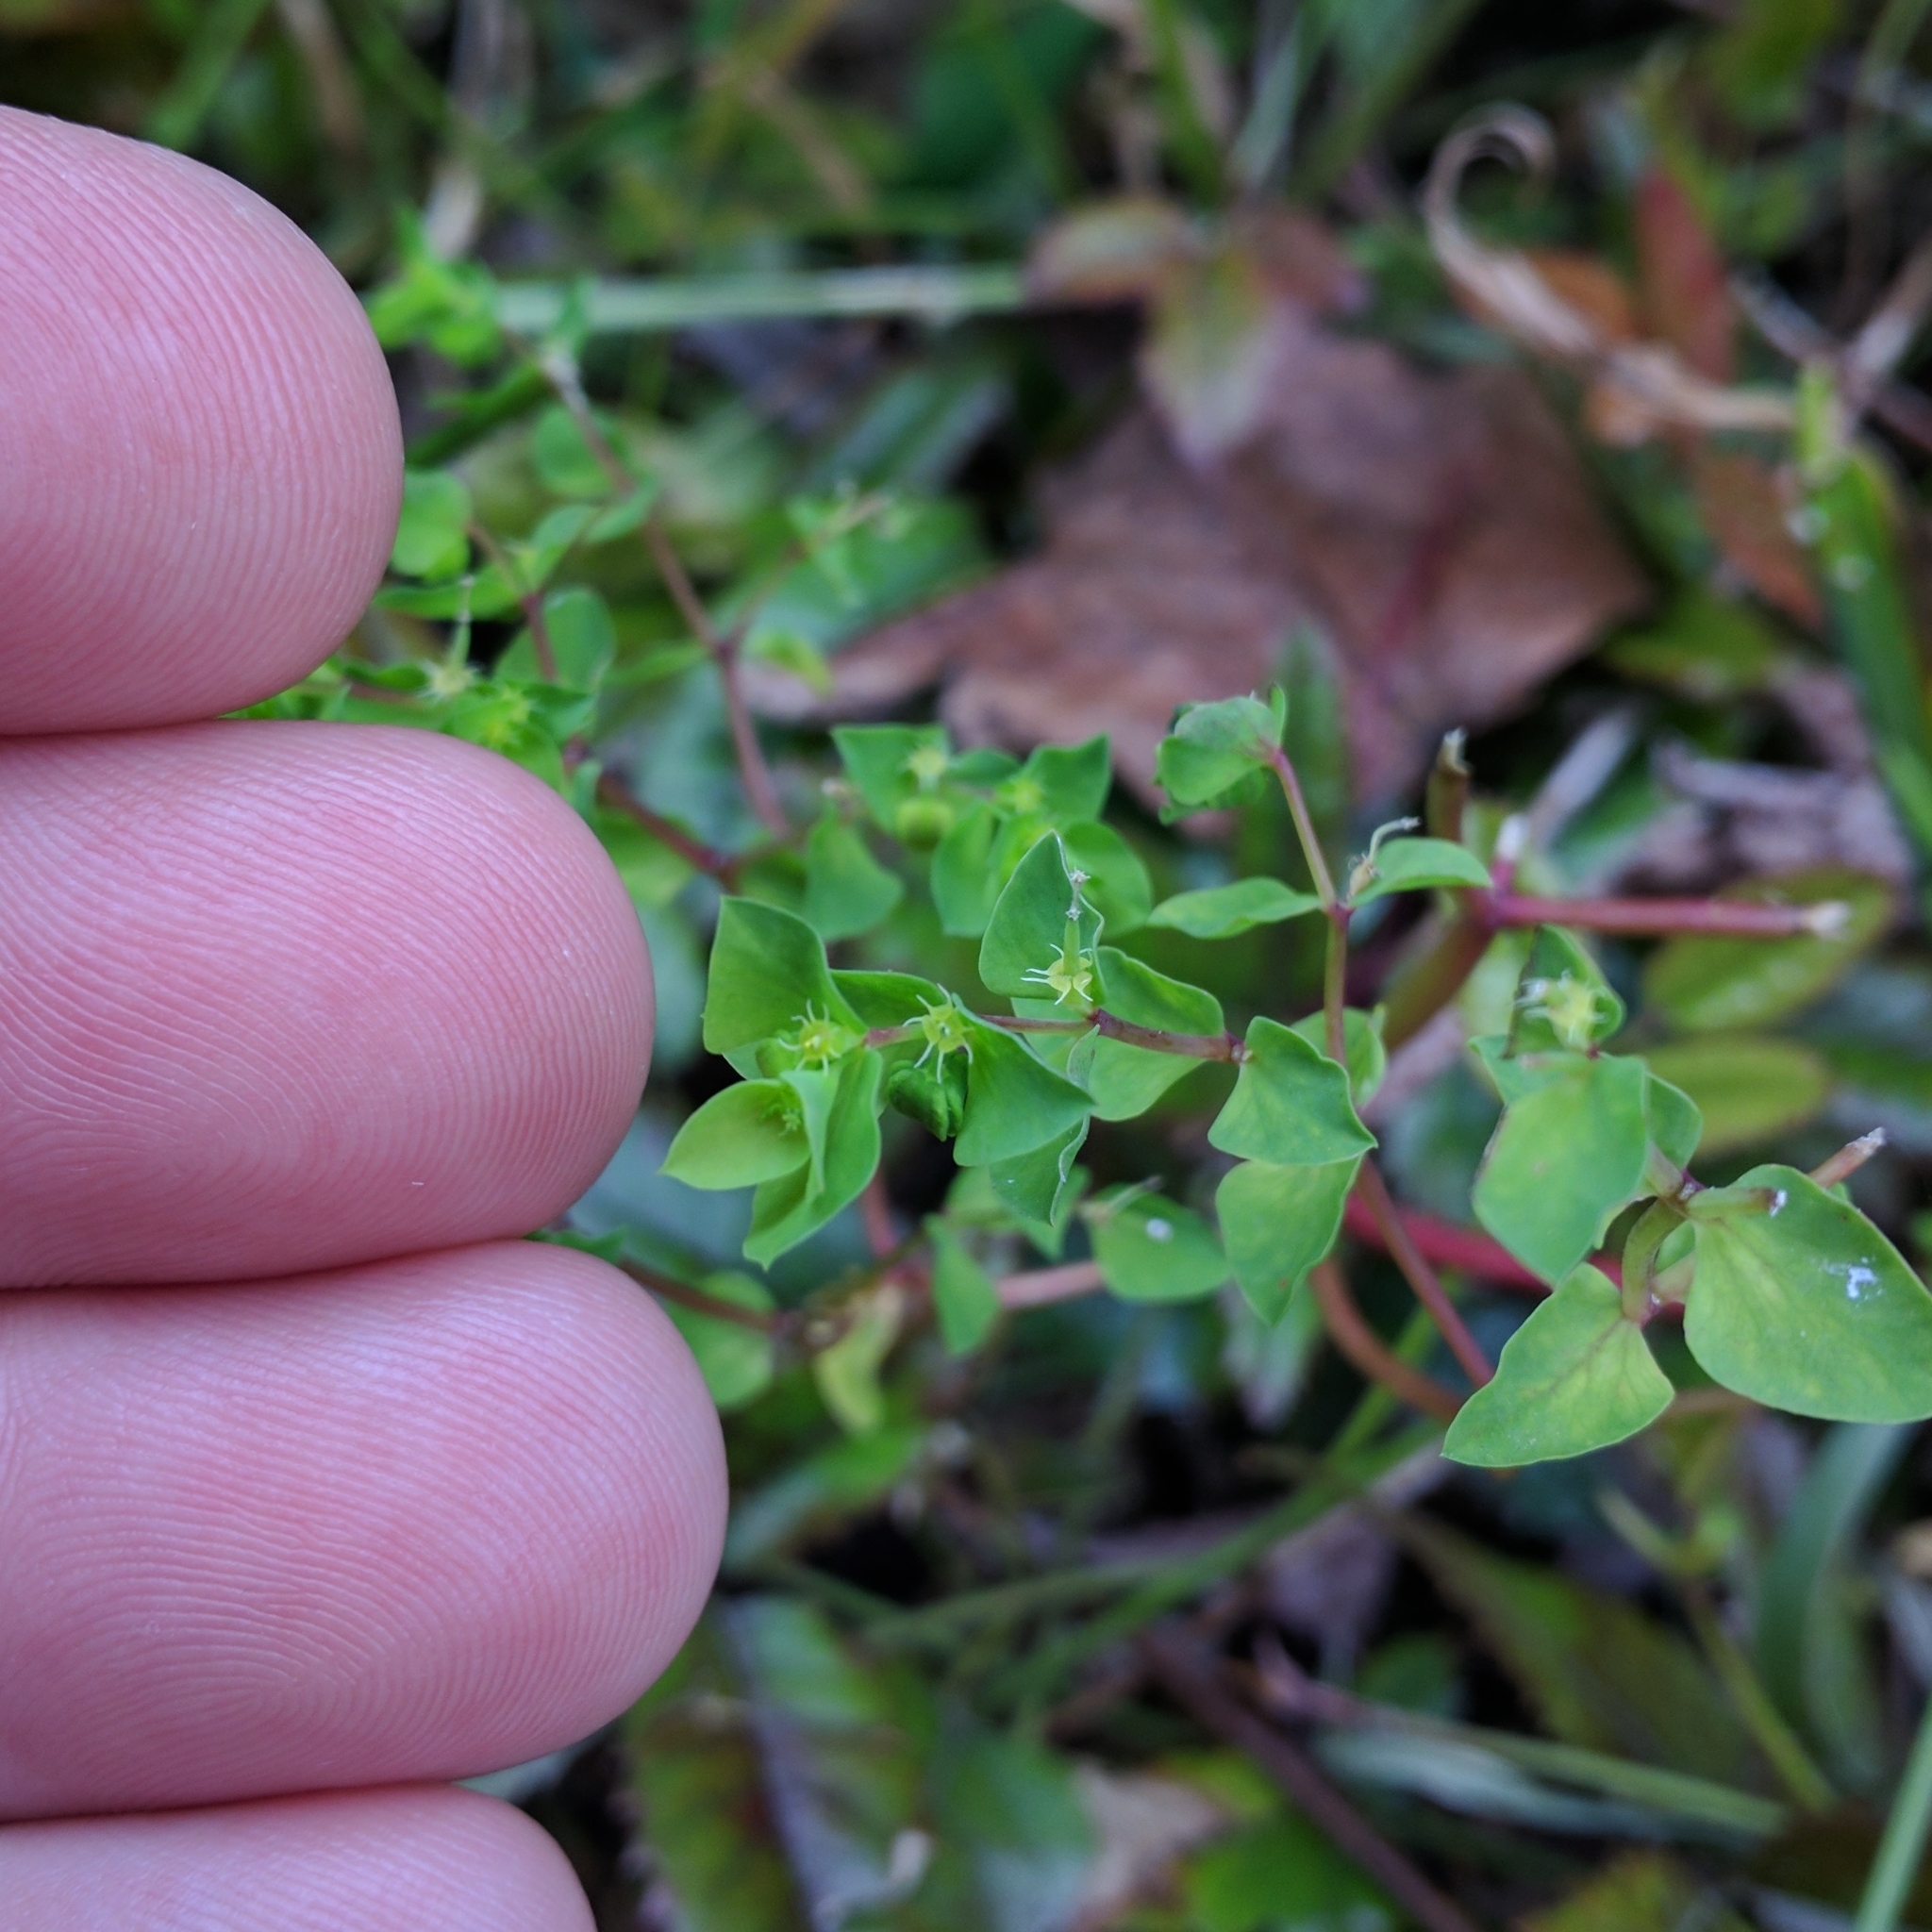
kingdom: Plantae
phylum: Tracheophyta
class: Magnoliopsida
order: Malpighiales
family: Euphorbiaceae
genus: Euphorbia
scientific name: Euphorbia peplus
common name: Petty spurge
